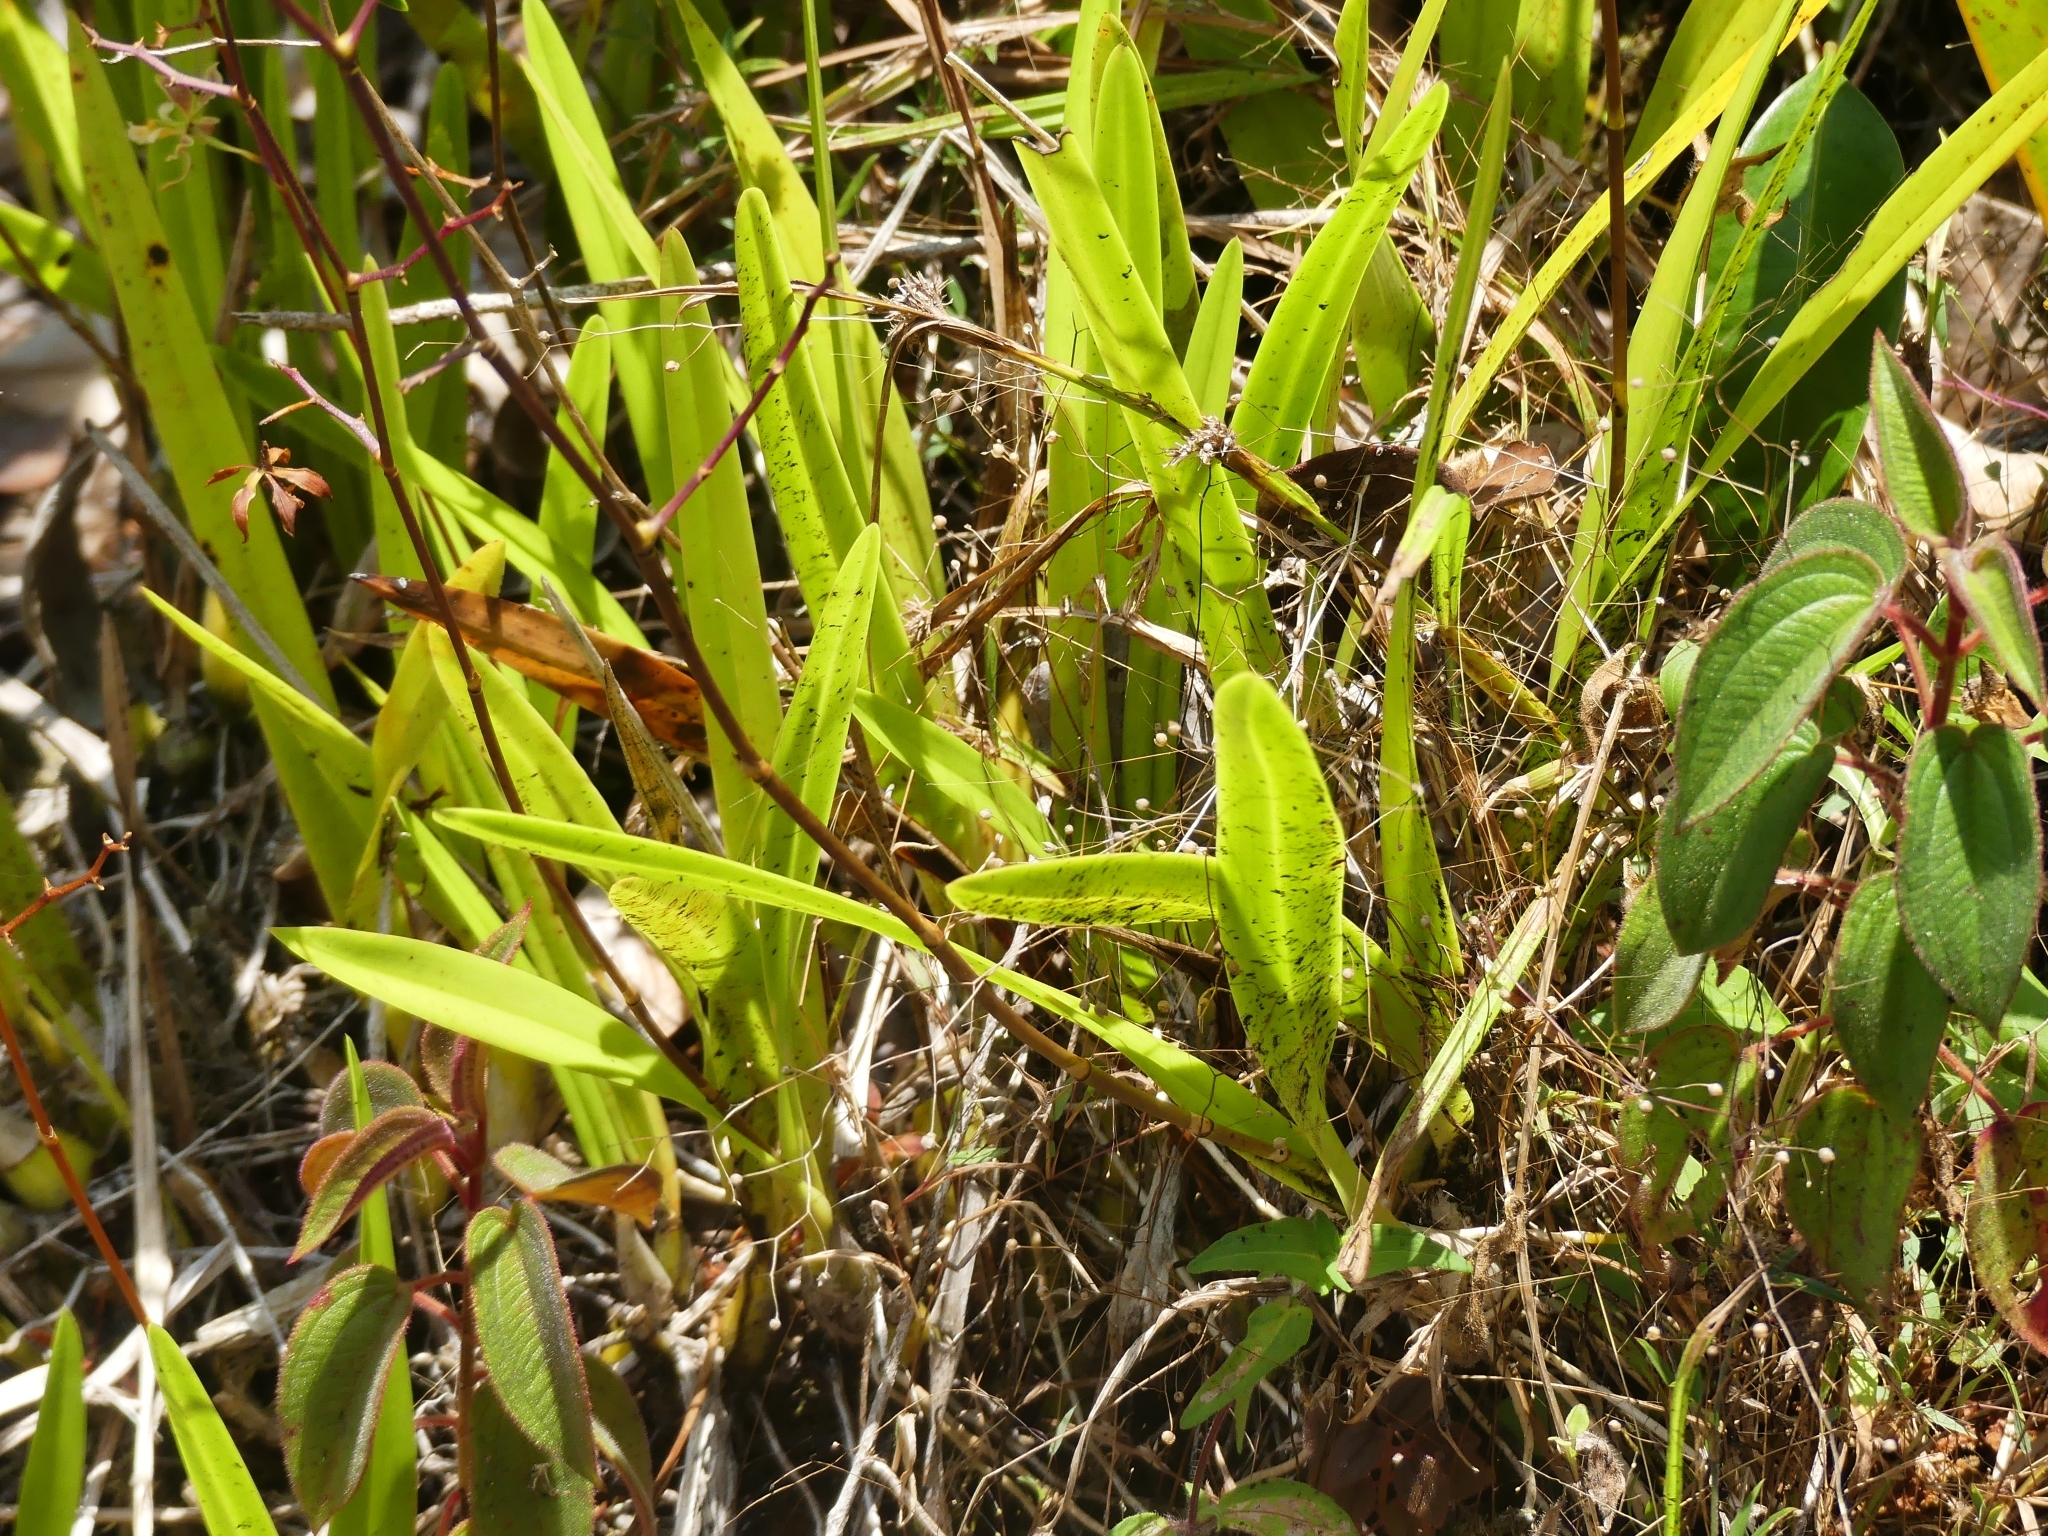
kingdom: Plantae
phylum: Tracheophyta
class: Liliopsida
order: Asparagales
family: Orchidaceae
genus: Encyclia
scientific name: Encyclia granitica
